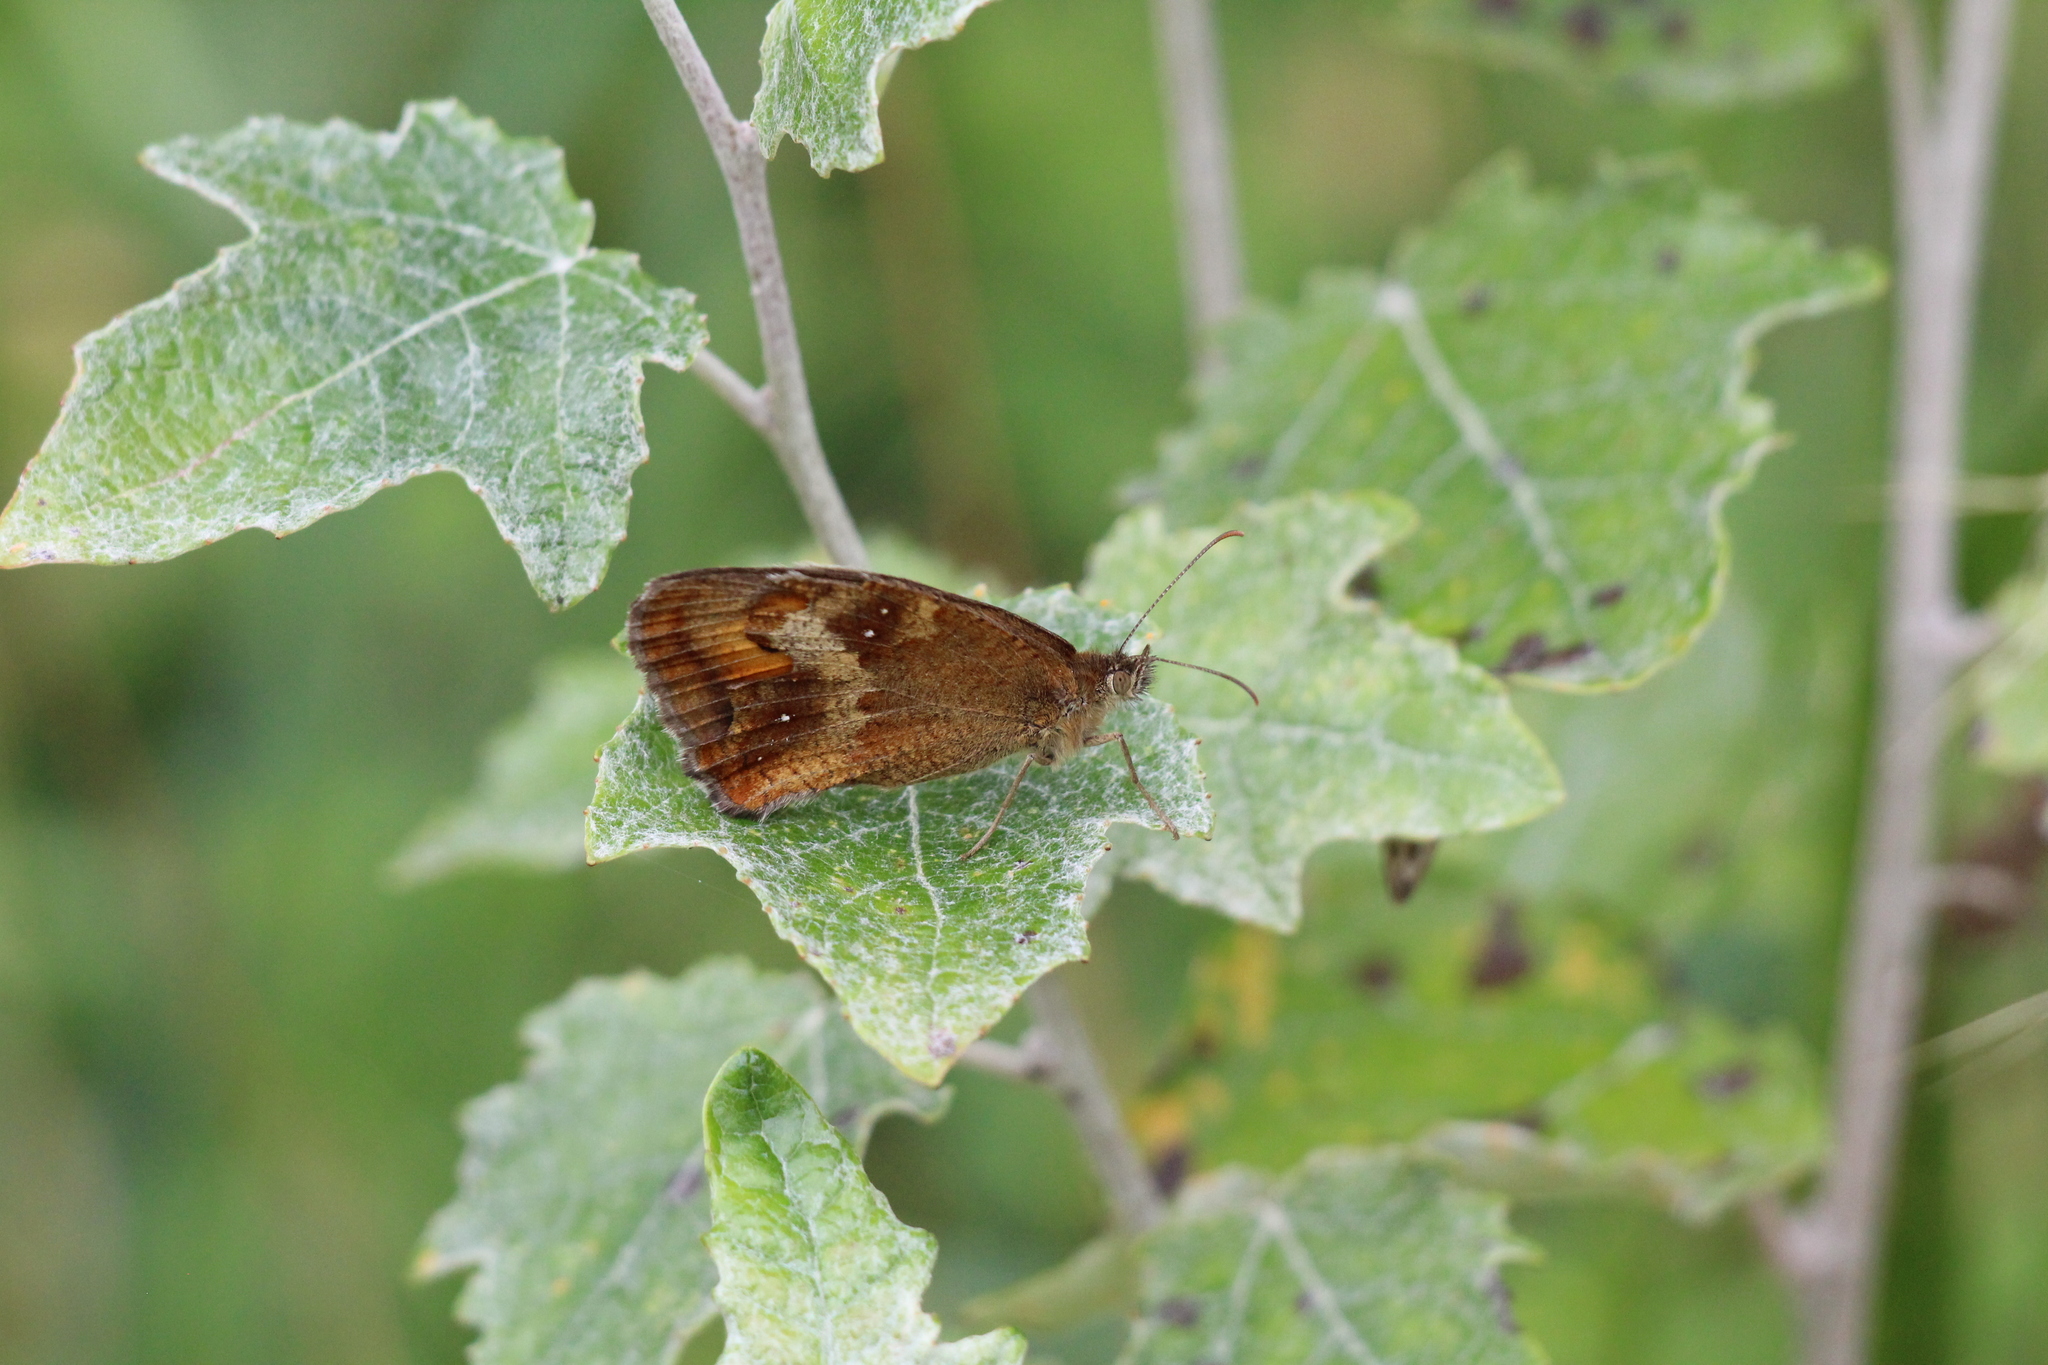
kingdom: Animalia
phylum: Arthropoda
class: Insecta
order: Lepidoptera
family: Nymphalidae
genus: Pyronia
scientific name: Pyronia tithonus
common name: Gatekeeper
